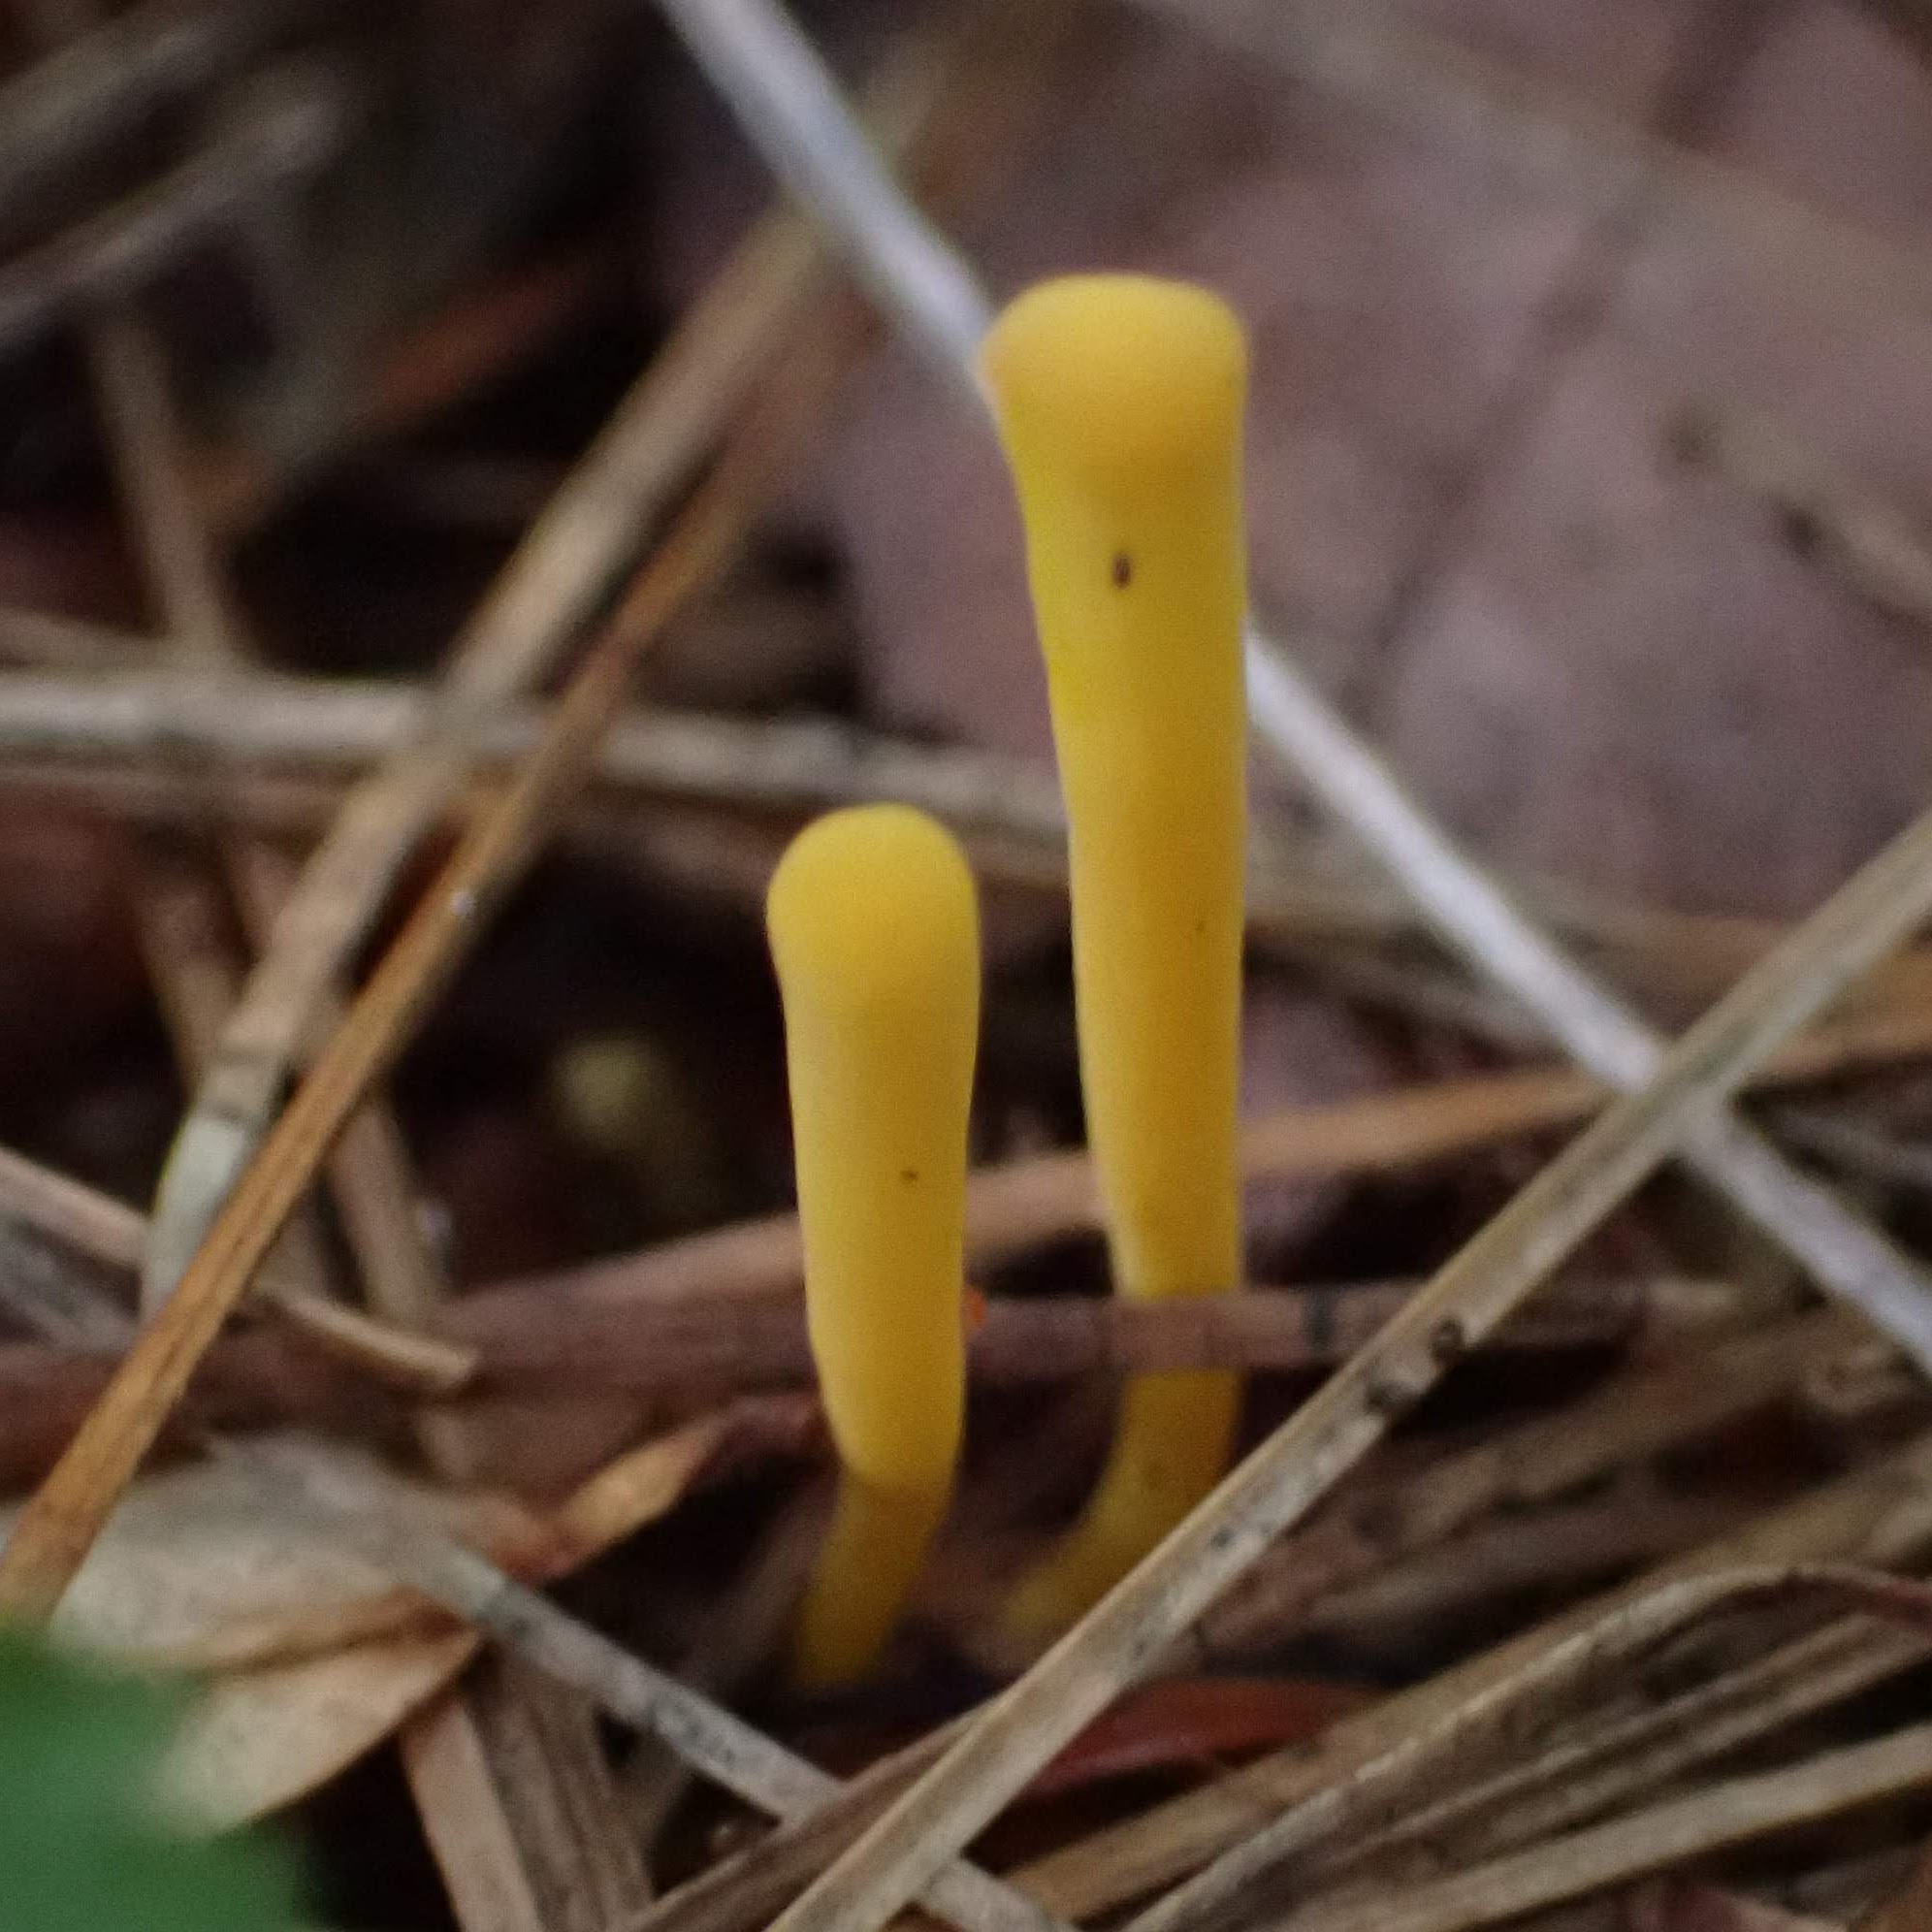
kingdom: Fungi
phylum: Basidiomycota
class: Agaricomycetes
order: Agaricales
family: Clavariaceae
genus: Clavulinopsis
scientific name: Clavulinopsis laeticolor
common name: Handsome club
